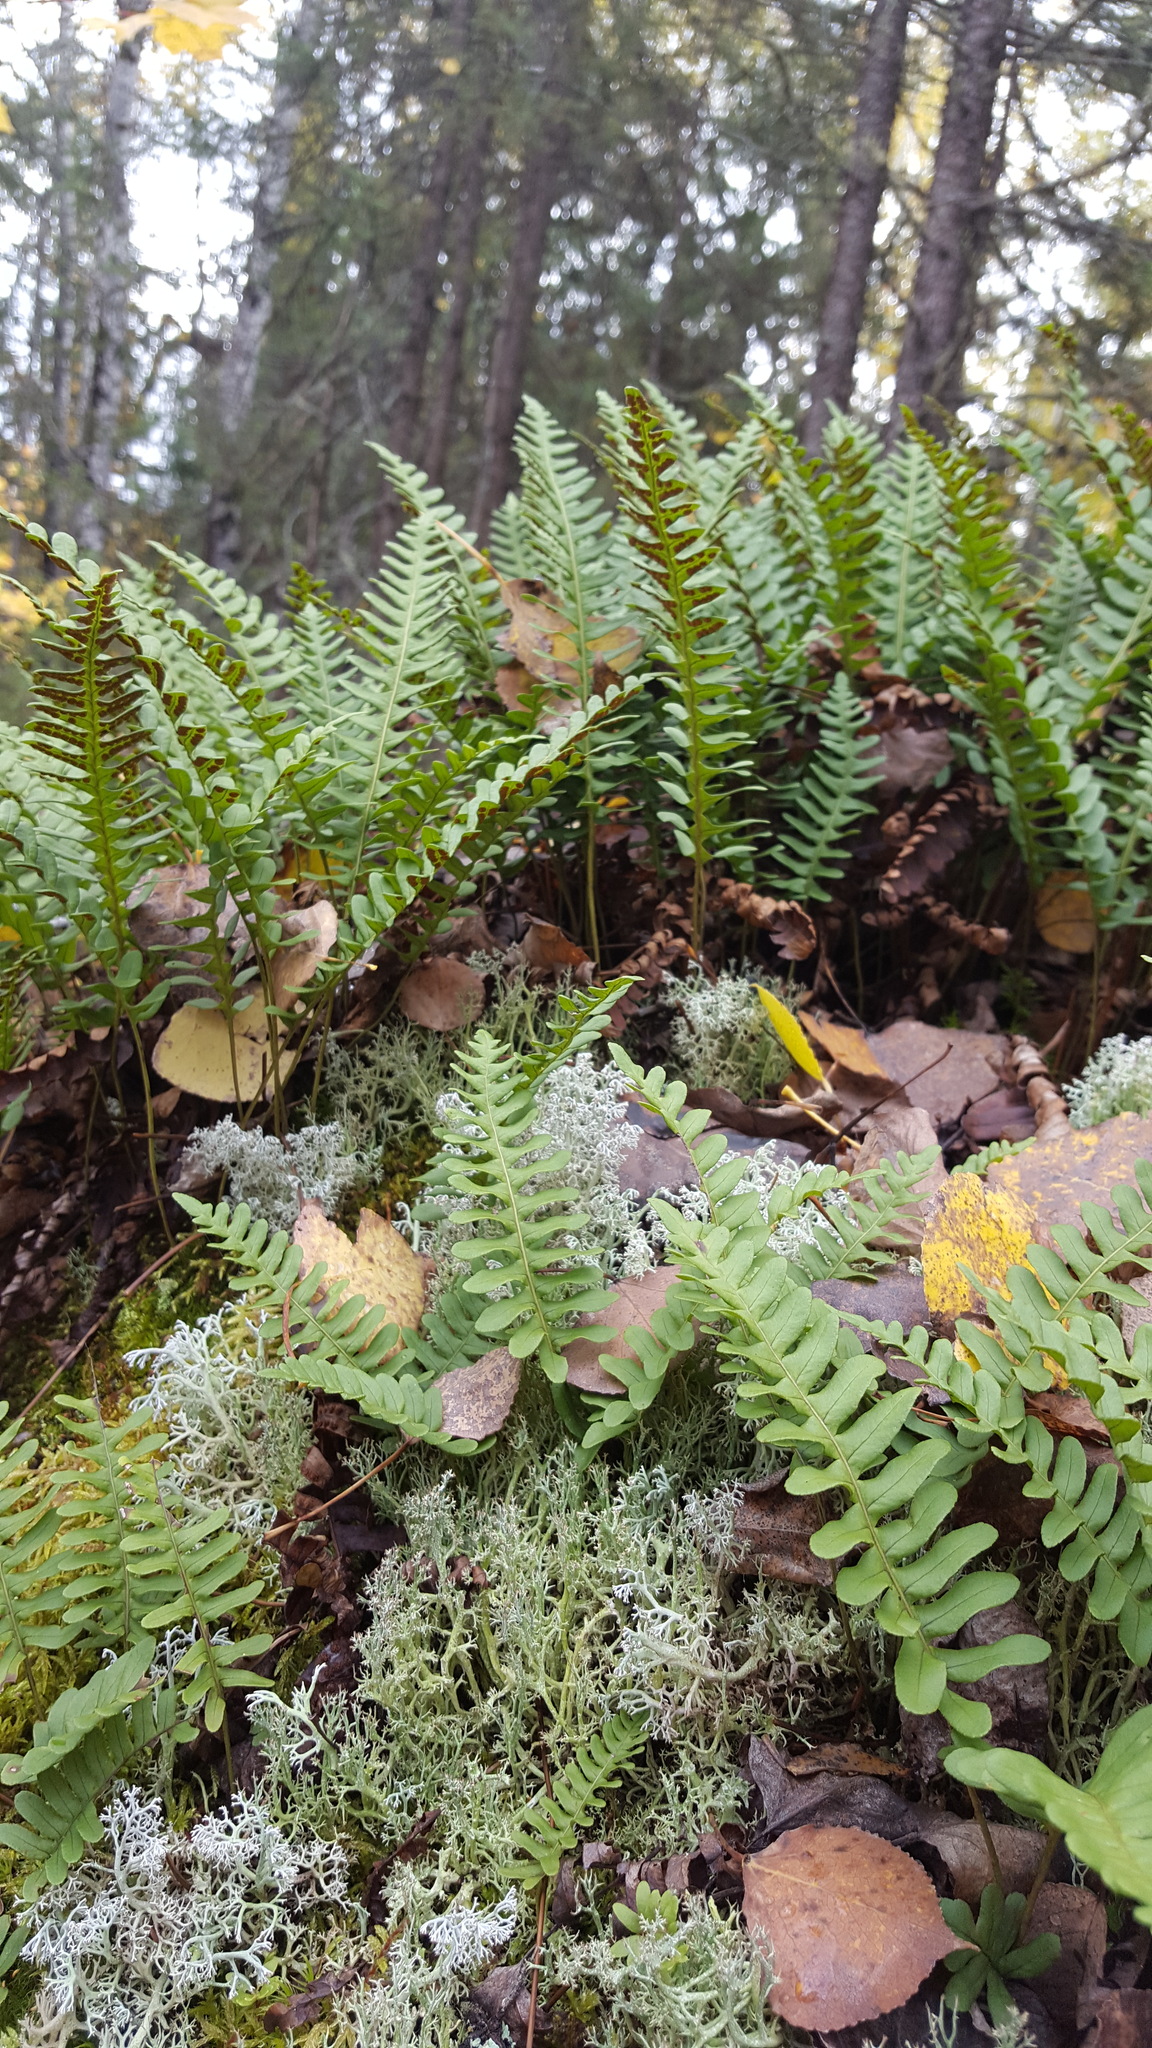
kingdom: Plantae
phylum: Tracheophyta
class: Polypodiopsida
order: Polypodiales
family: Polypodiaceae
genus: Polypodium
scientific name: Polypodium virginianum
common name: American wall fern
